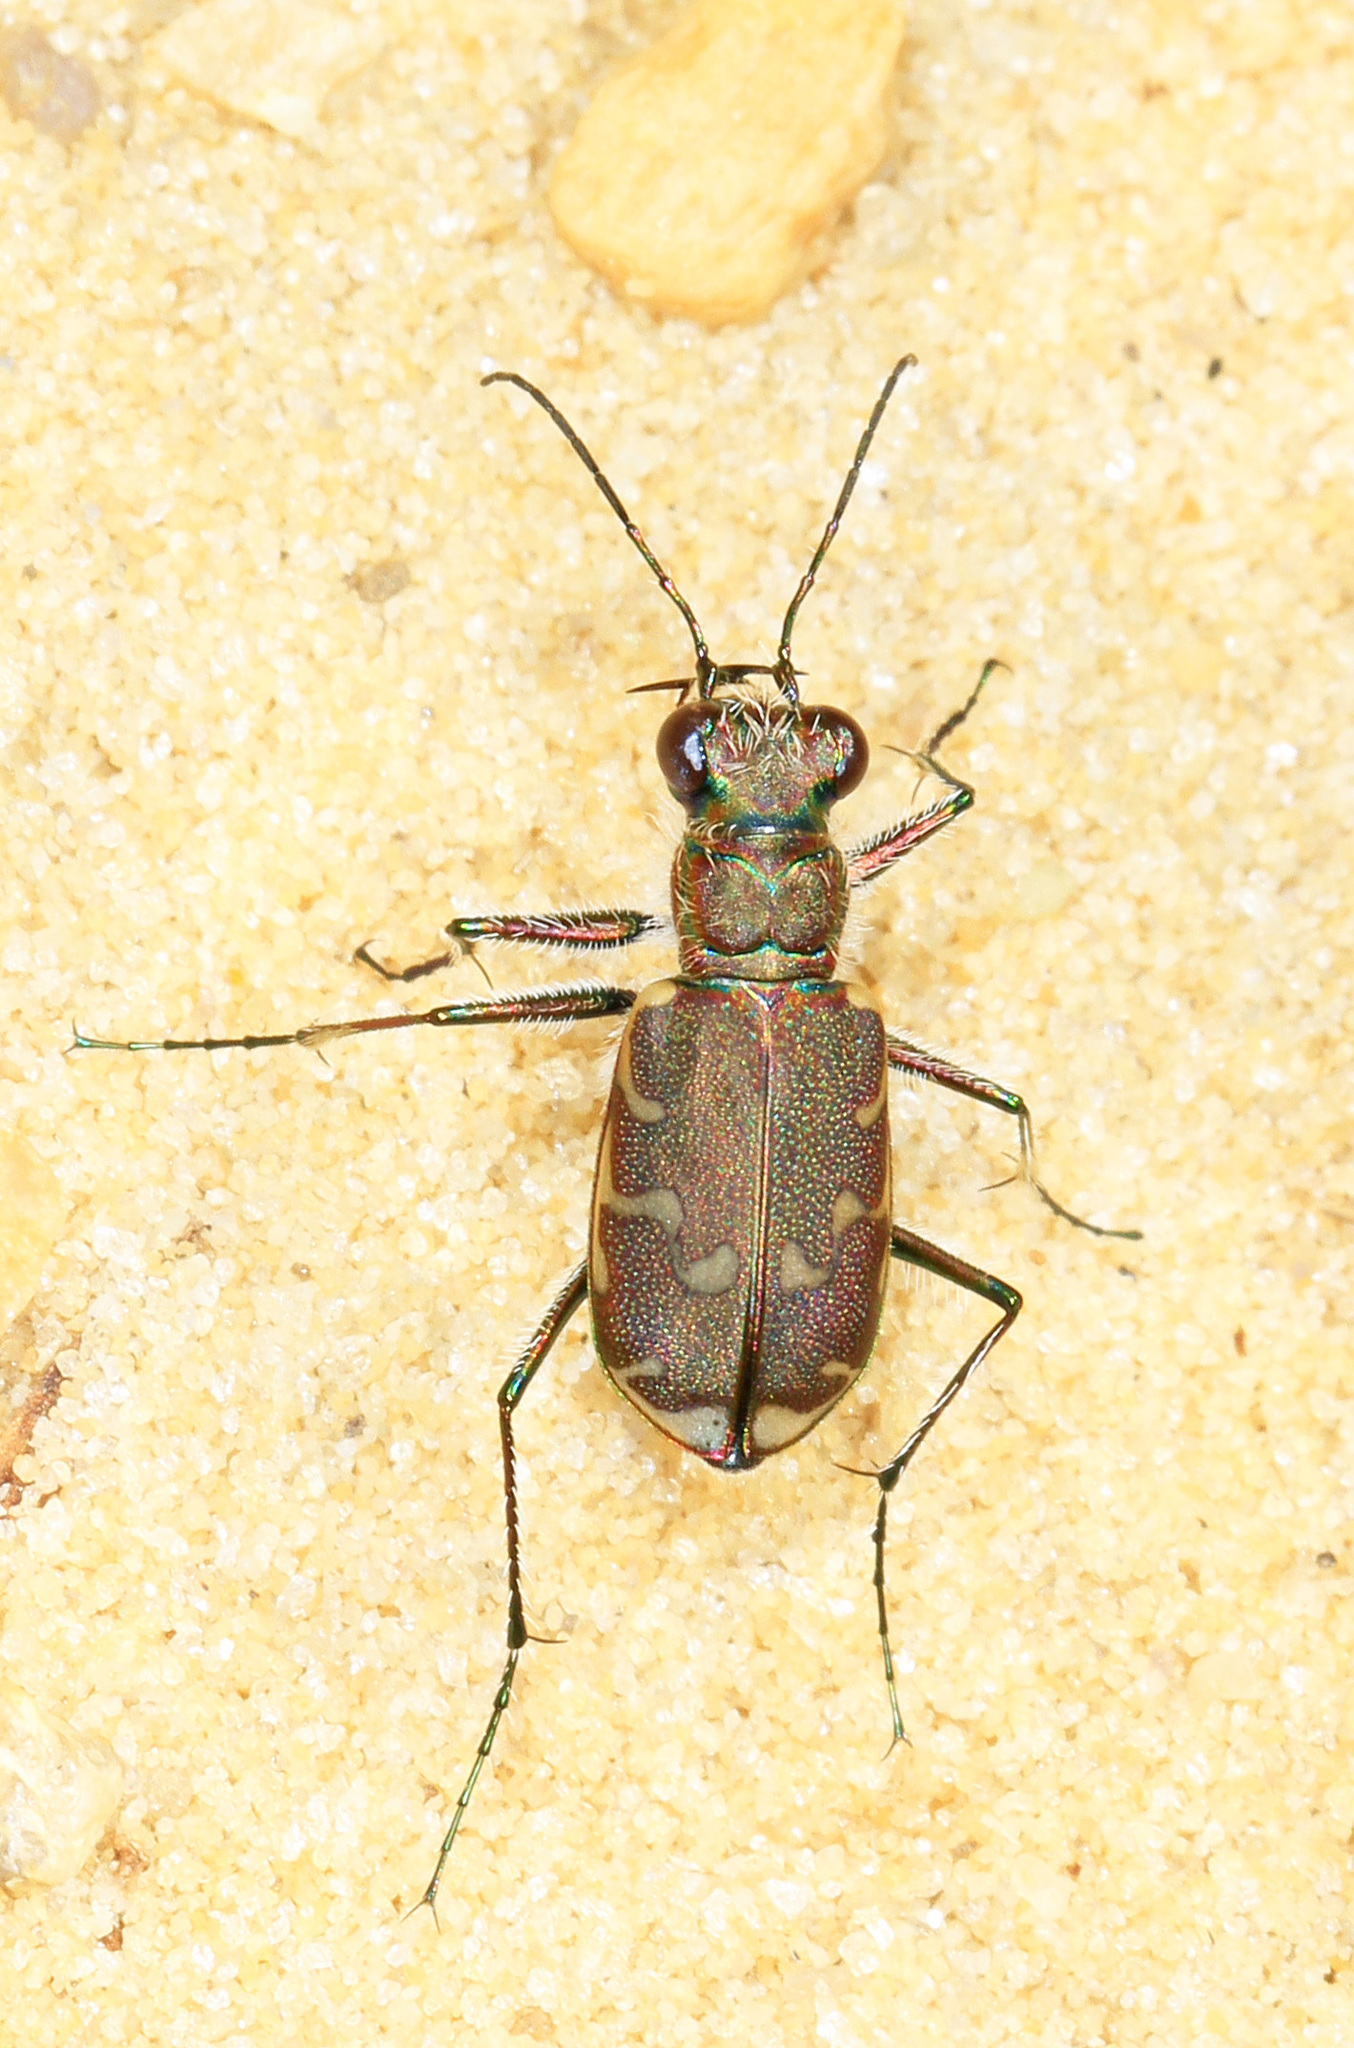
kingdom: Animalia
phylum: Arthropoda
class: Insecta
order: Coleoptera
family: Carabidae
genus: Cicindela
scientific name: Cicindela repanda
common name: Bronzed tiger beetle
